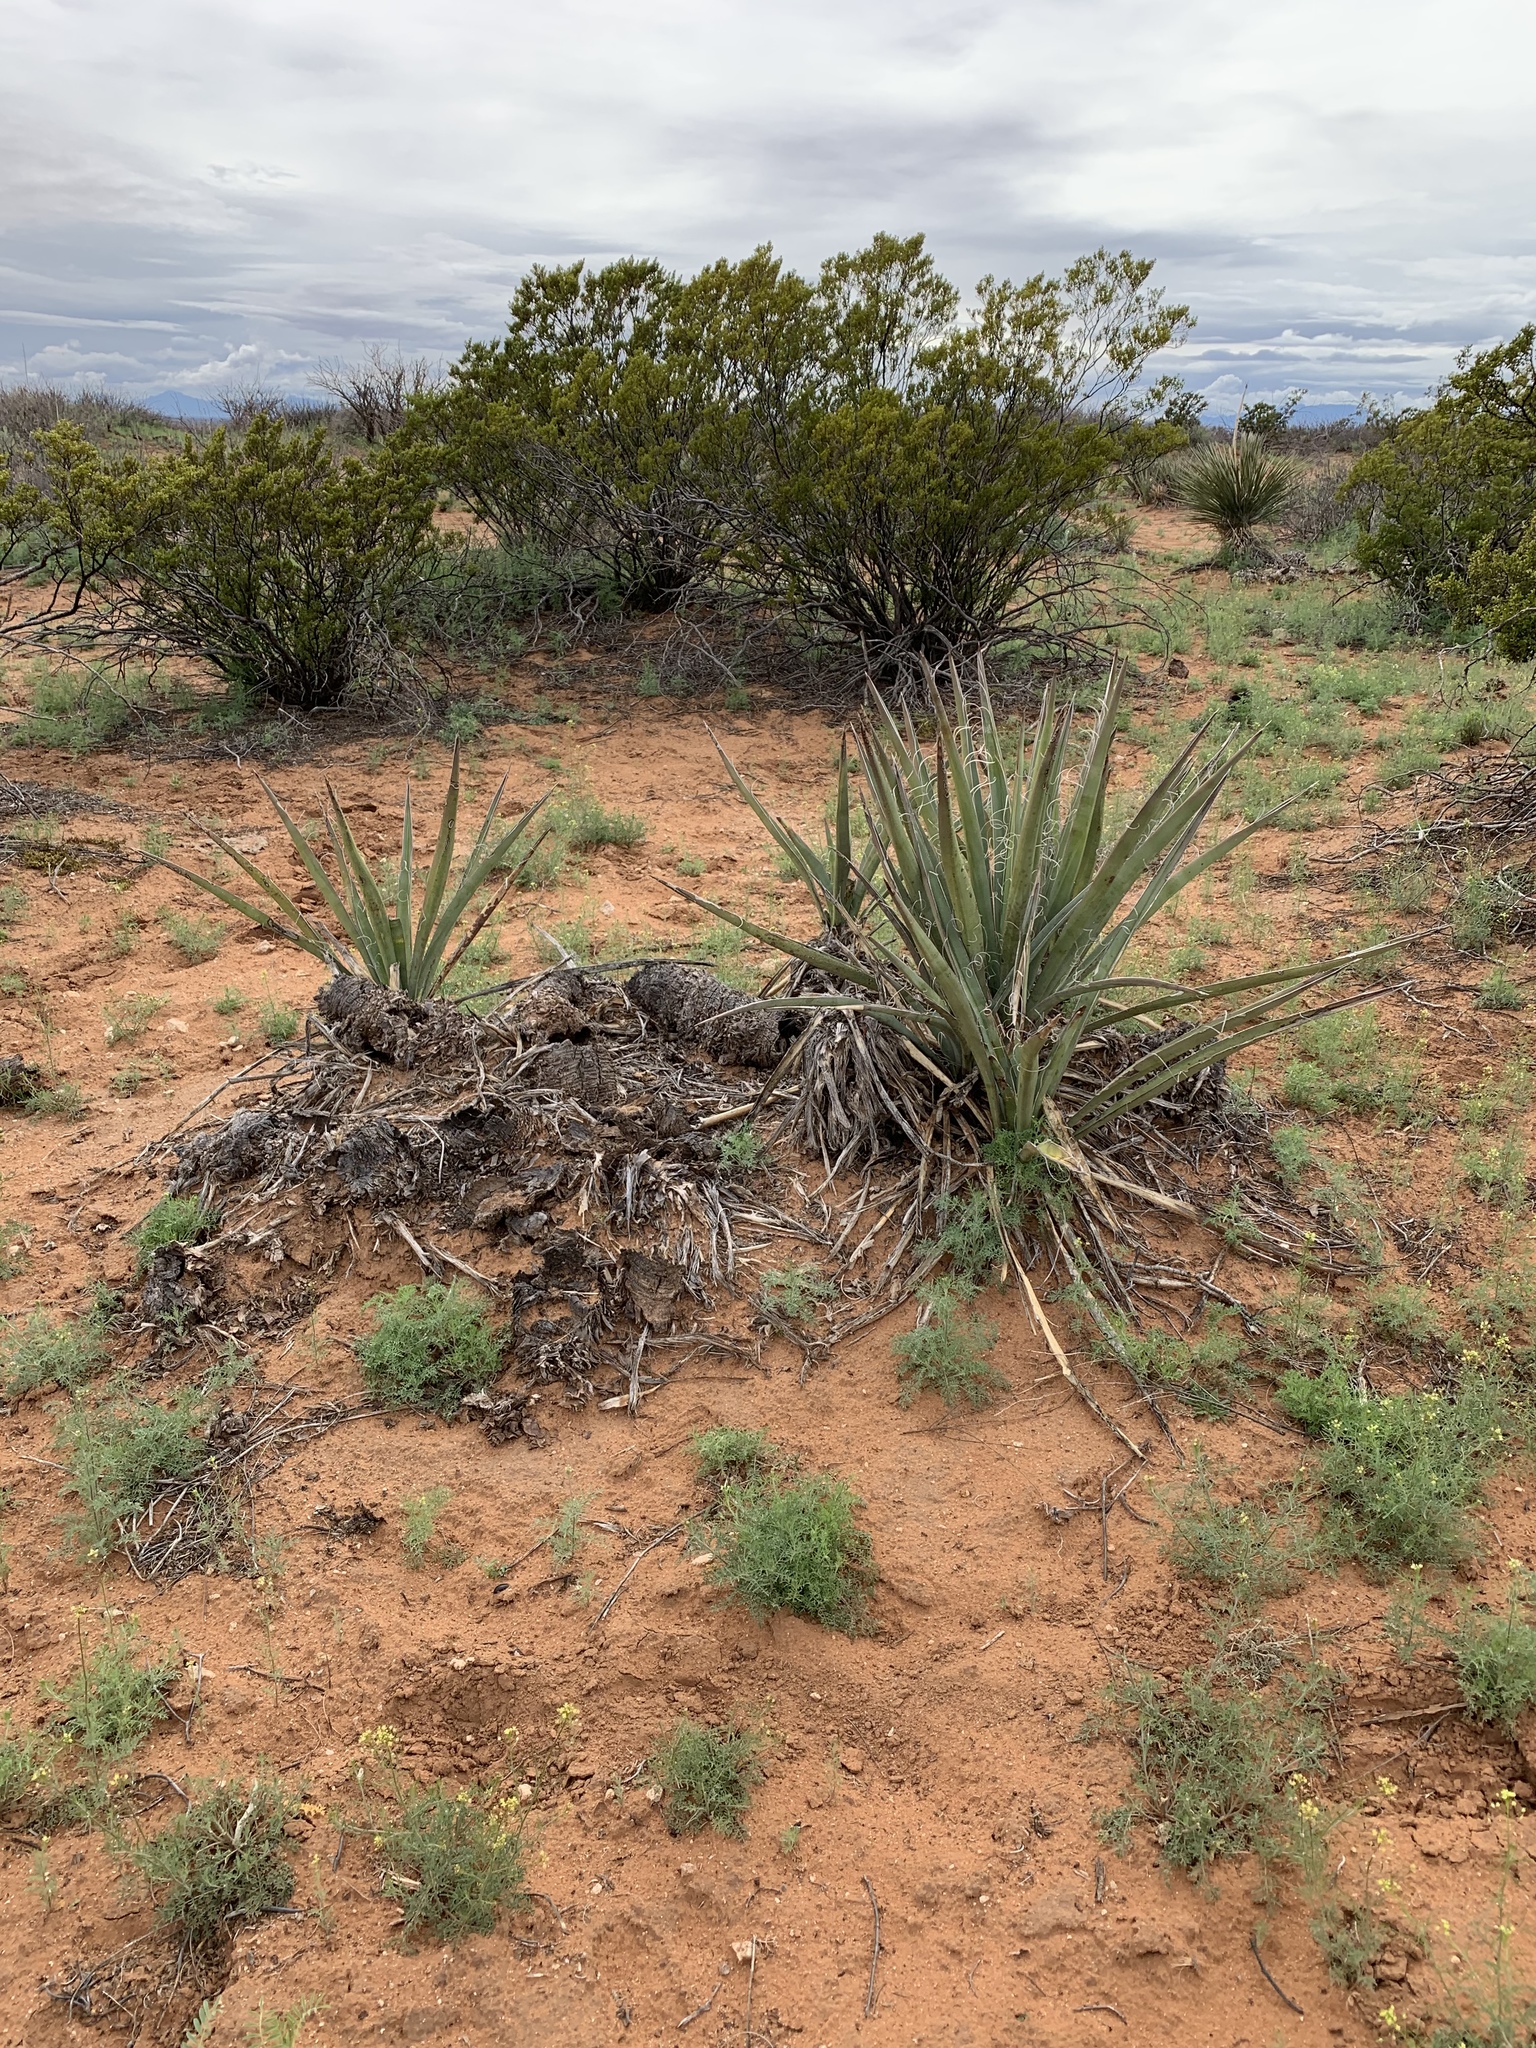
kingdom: Plantae
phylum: Tracheophyta
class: Liliopsida
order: Asparagales
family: Asparagaceae
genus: Yucca
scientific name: Yucca baccata
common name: Banana yucca
